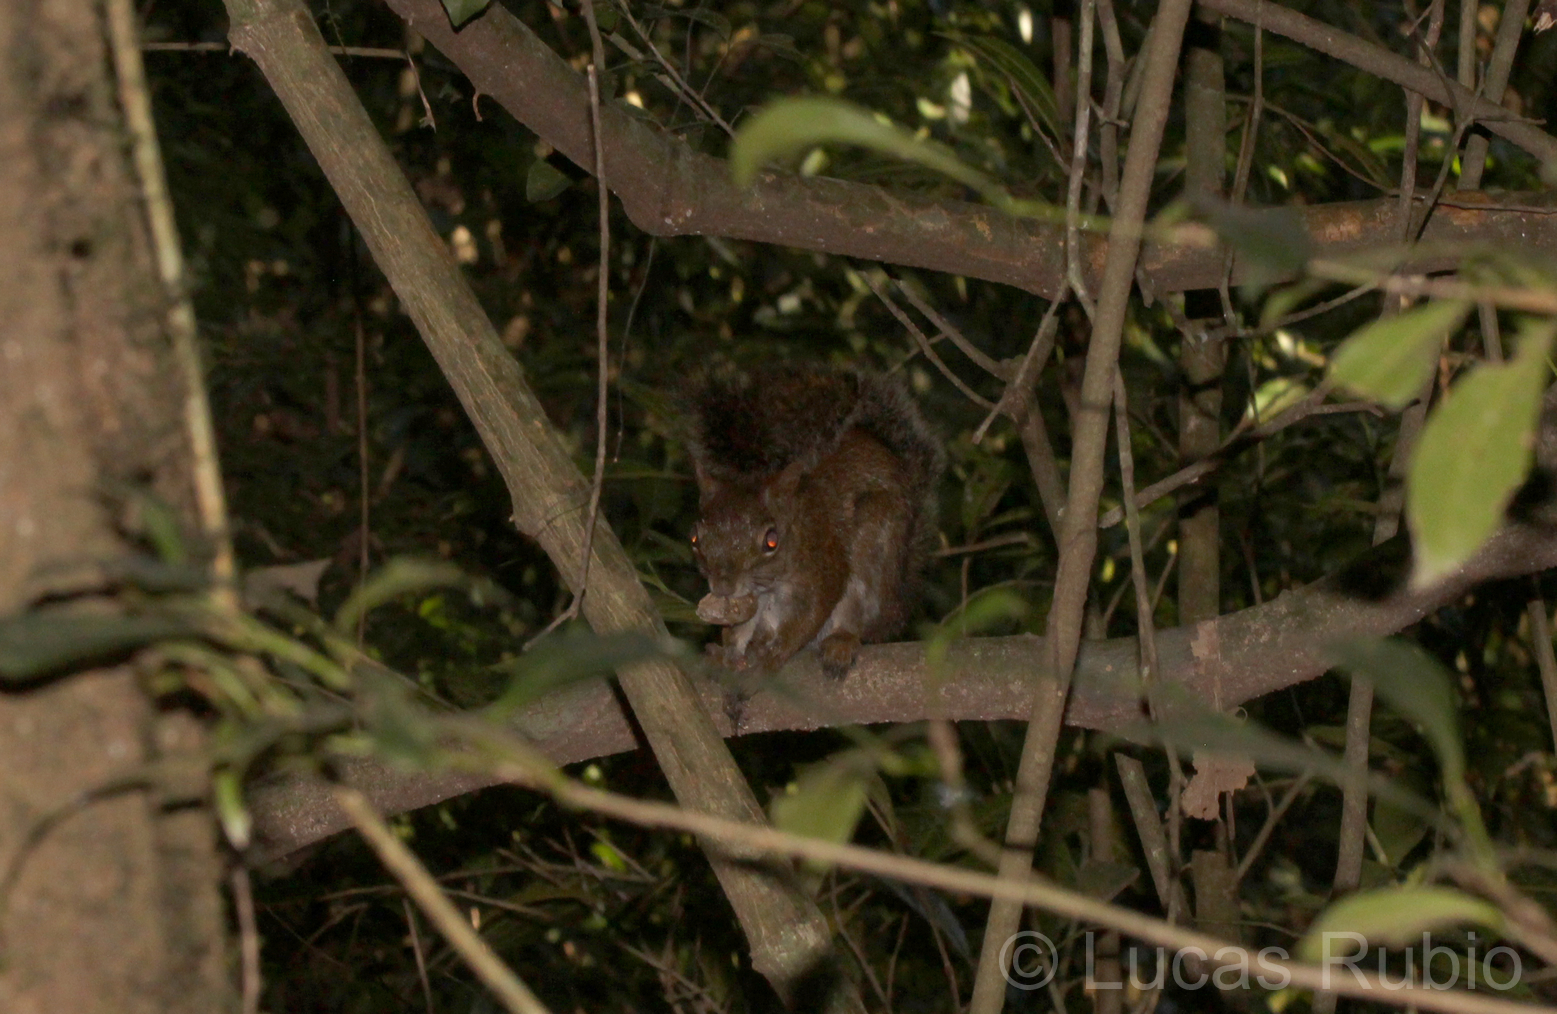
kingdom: Animalia
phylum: Chordata
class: Mammalia
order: Rodentia
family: Sciuridae
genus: Sciurus
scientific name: Sciurus aestuans
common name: Guianan squirrel
